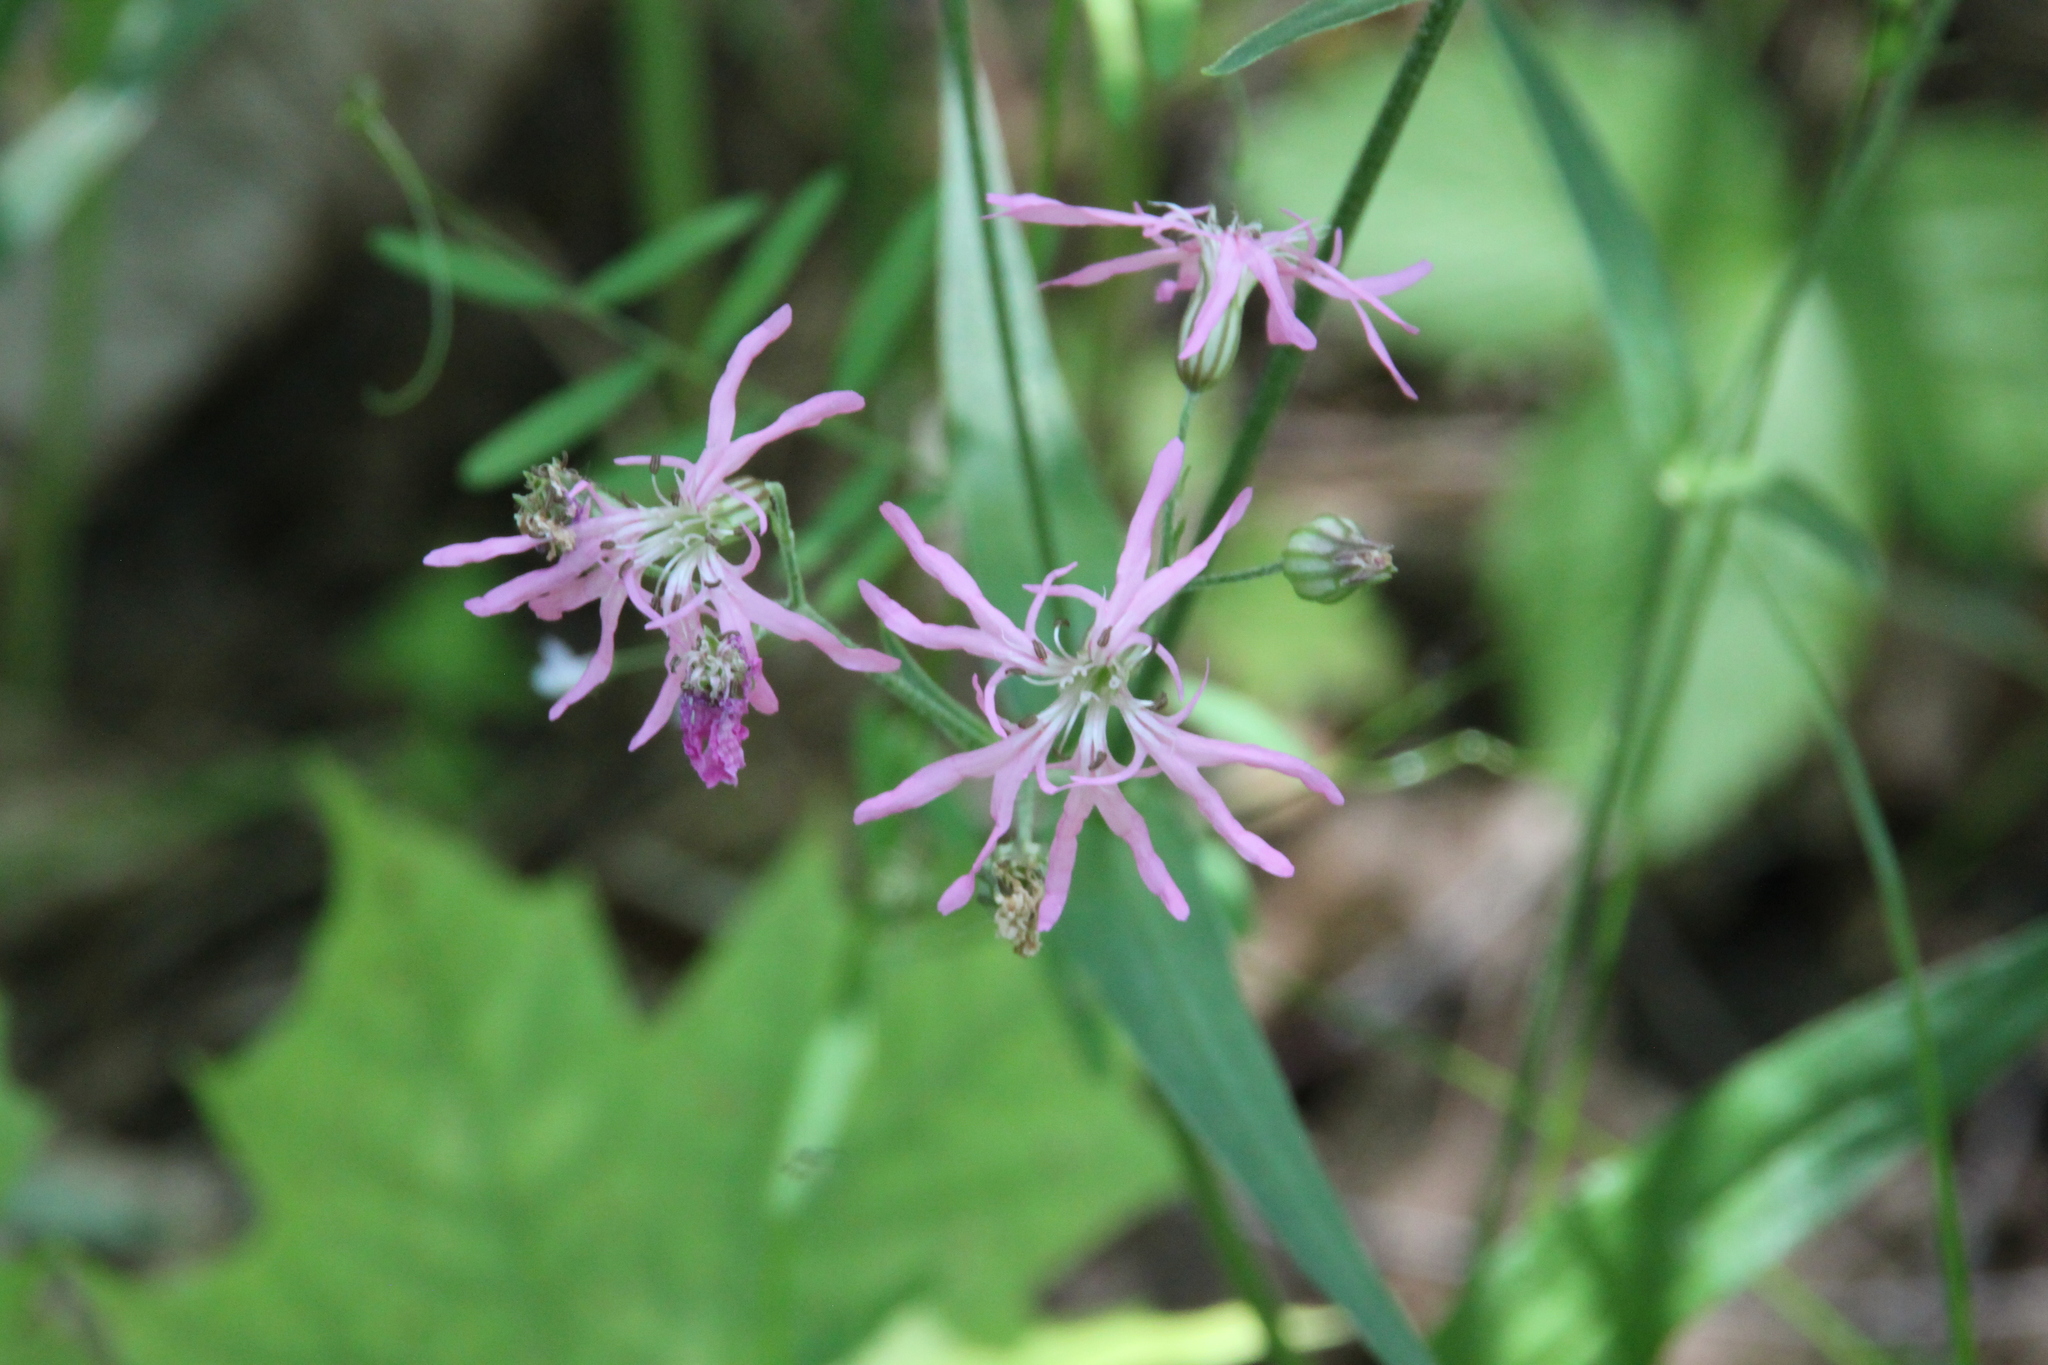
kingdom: Plantae
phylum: Tracheophyta
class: Magnoliopsida
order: Caryophyllales
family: Caryophyllaceae
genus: Silene
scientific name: Silene flos-cuculi
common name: Ragged-robin
